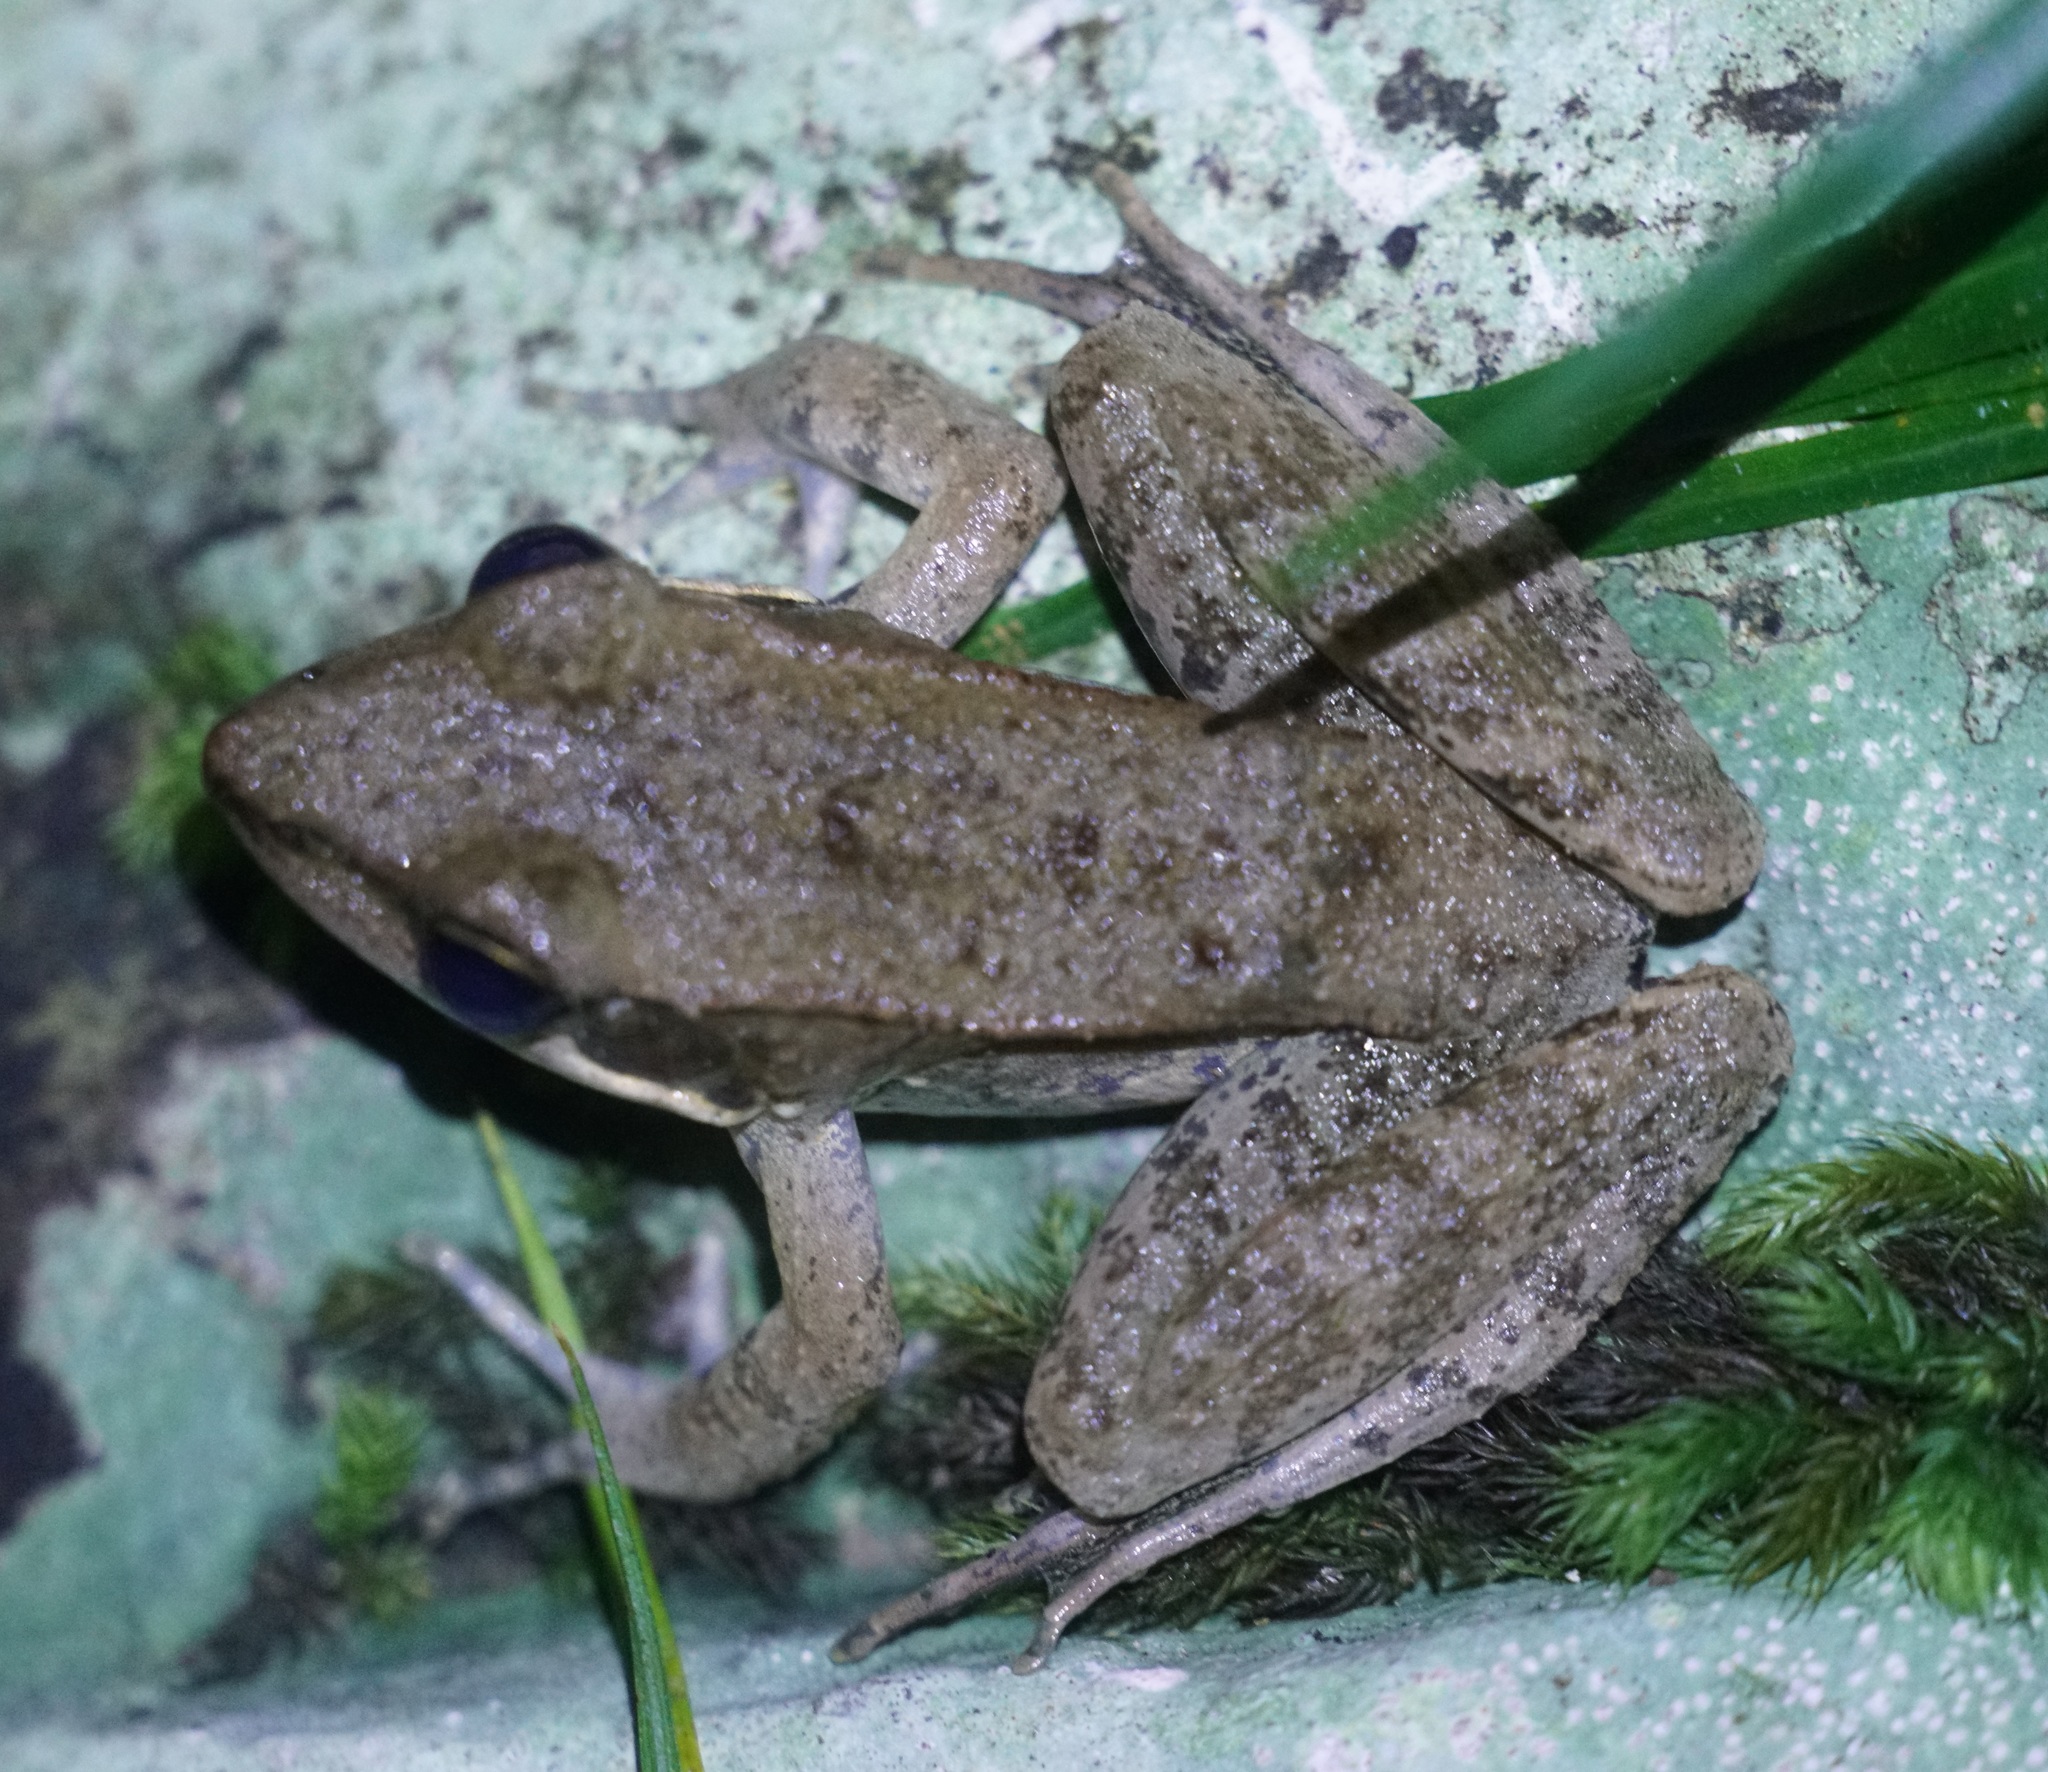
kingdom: Animalia
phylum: Chordata
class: Amphibia
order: Anura
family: Ranidae
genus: Papurana
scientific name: Papurana daemeli
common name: Arhem rana
